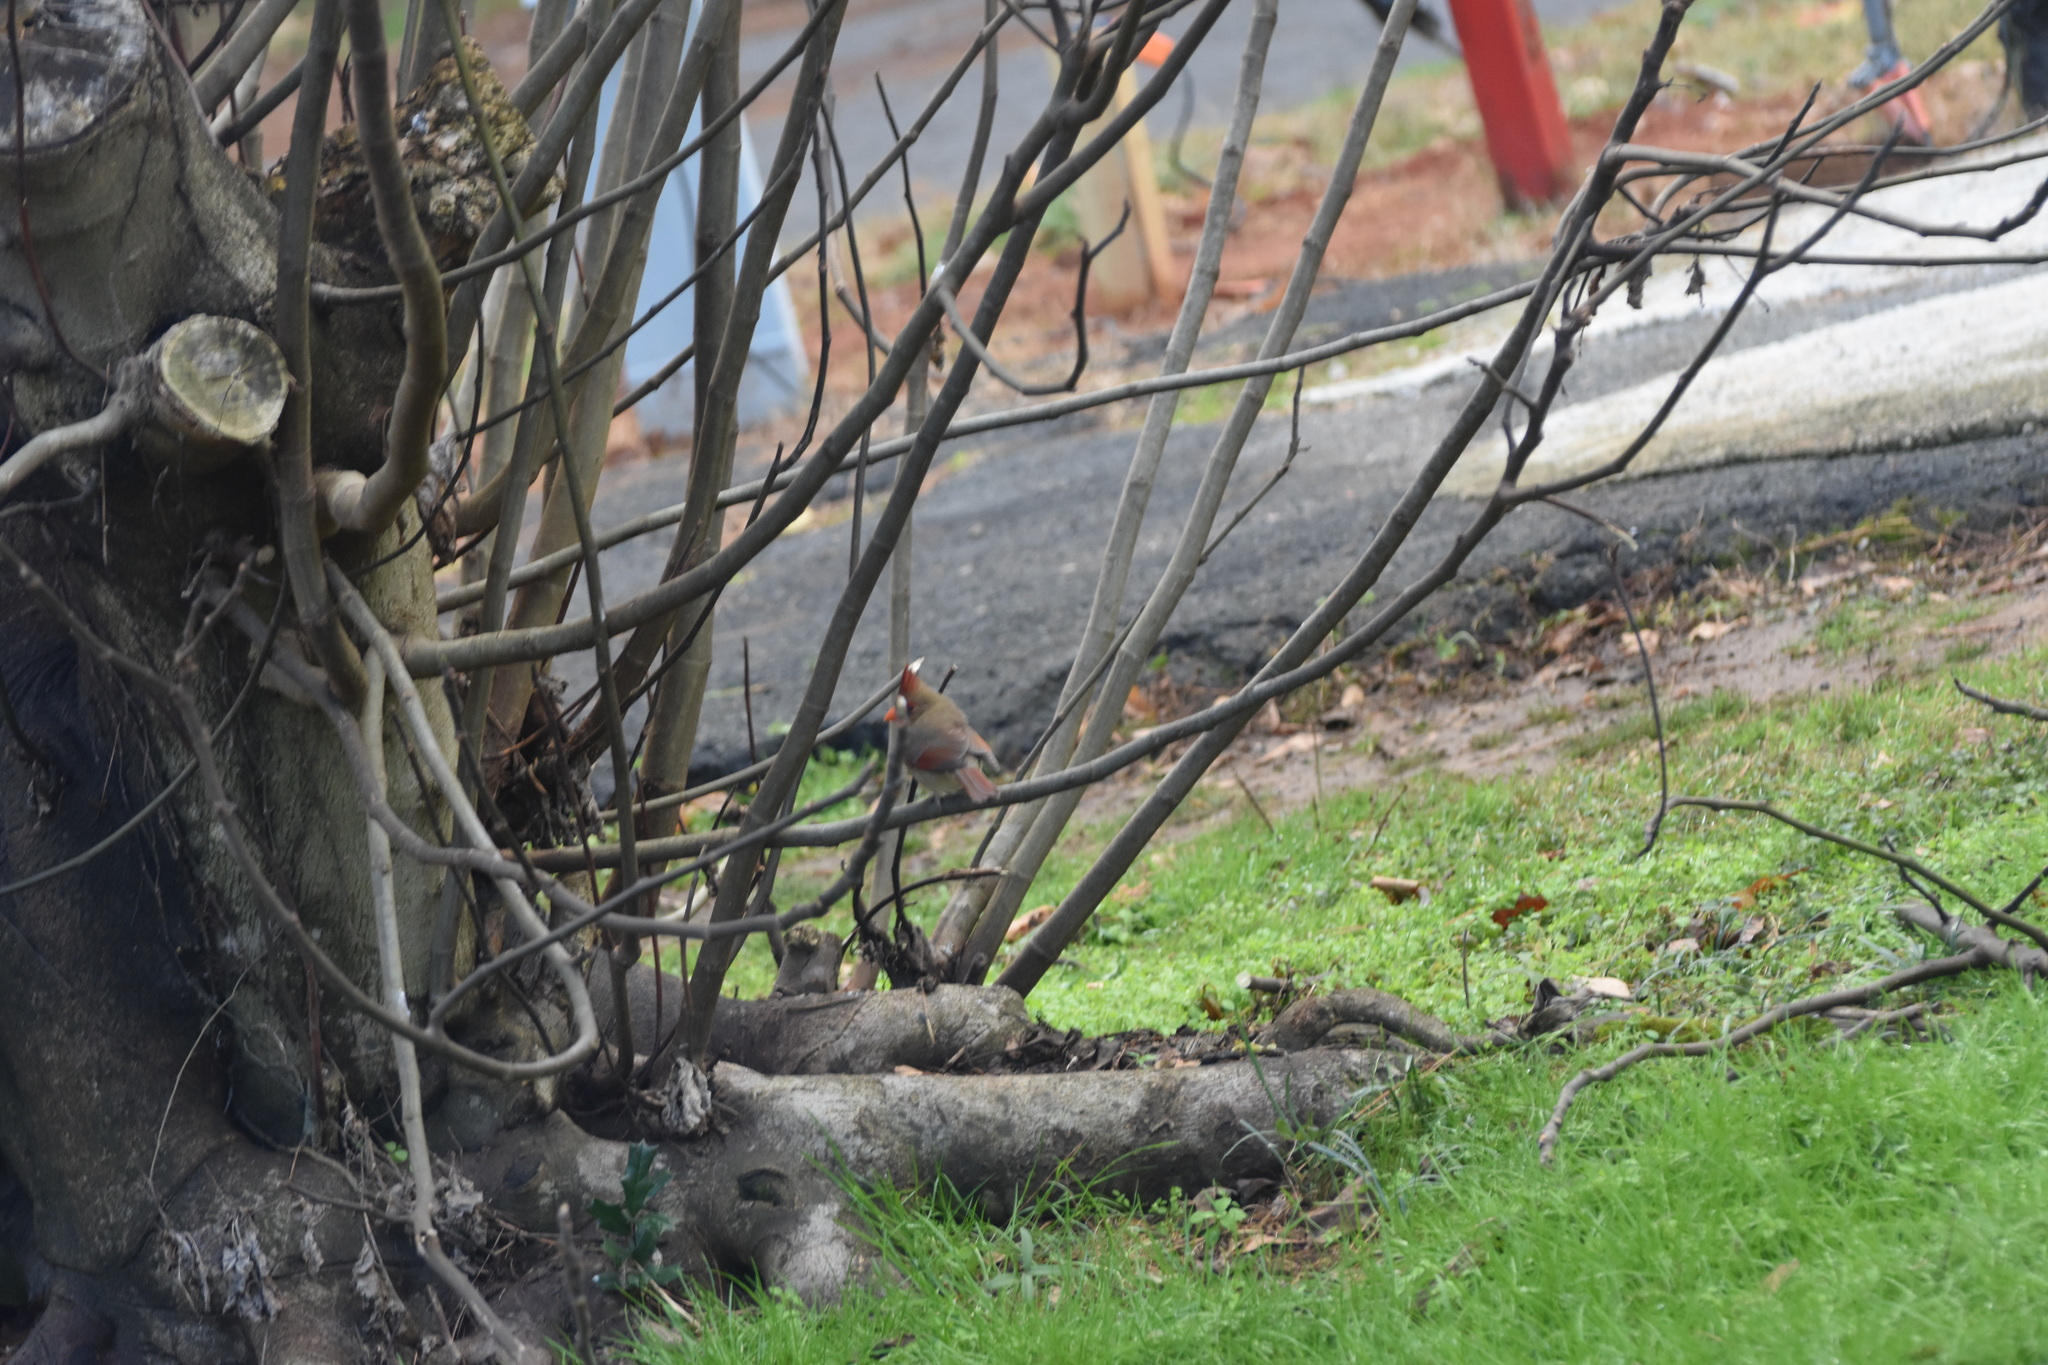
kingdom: Animalia
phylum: Chordata
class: Aves
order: Passeriformes
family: Cardinalidae
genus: Cardinalis
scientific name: Cardinalis cardinalis
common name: Northern cardinal
